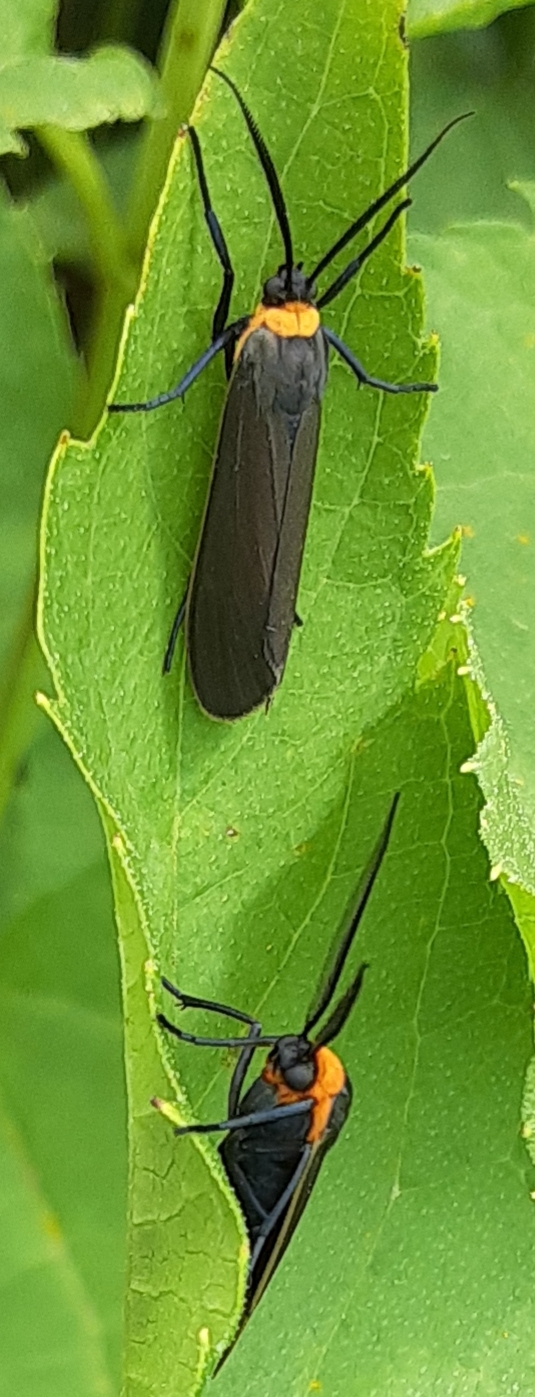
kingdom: Animalia
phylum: Arthropoda
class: Insecta
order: Lepidoptera
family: Erebidae
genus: Cisseps
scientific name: Cisseps fulvicollis
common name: Yellow-collared scape moth
